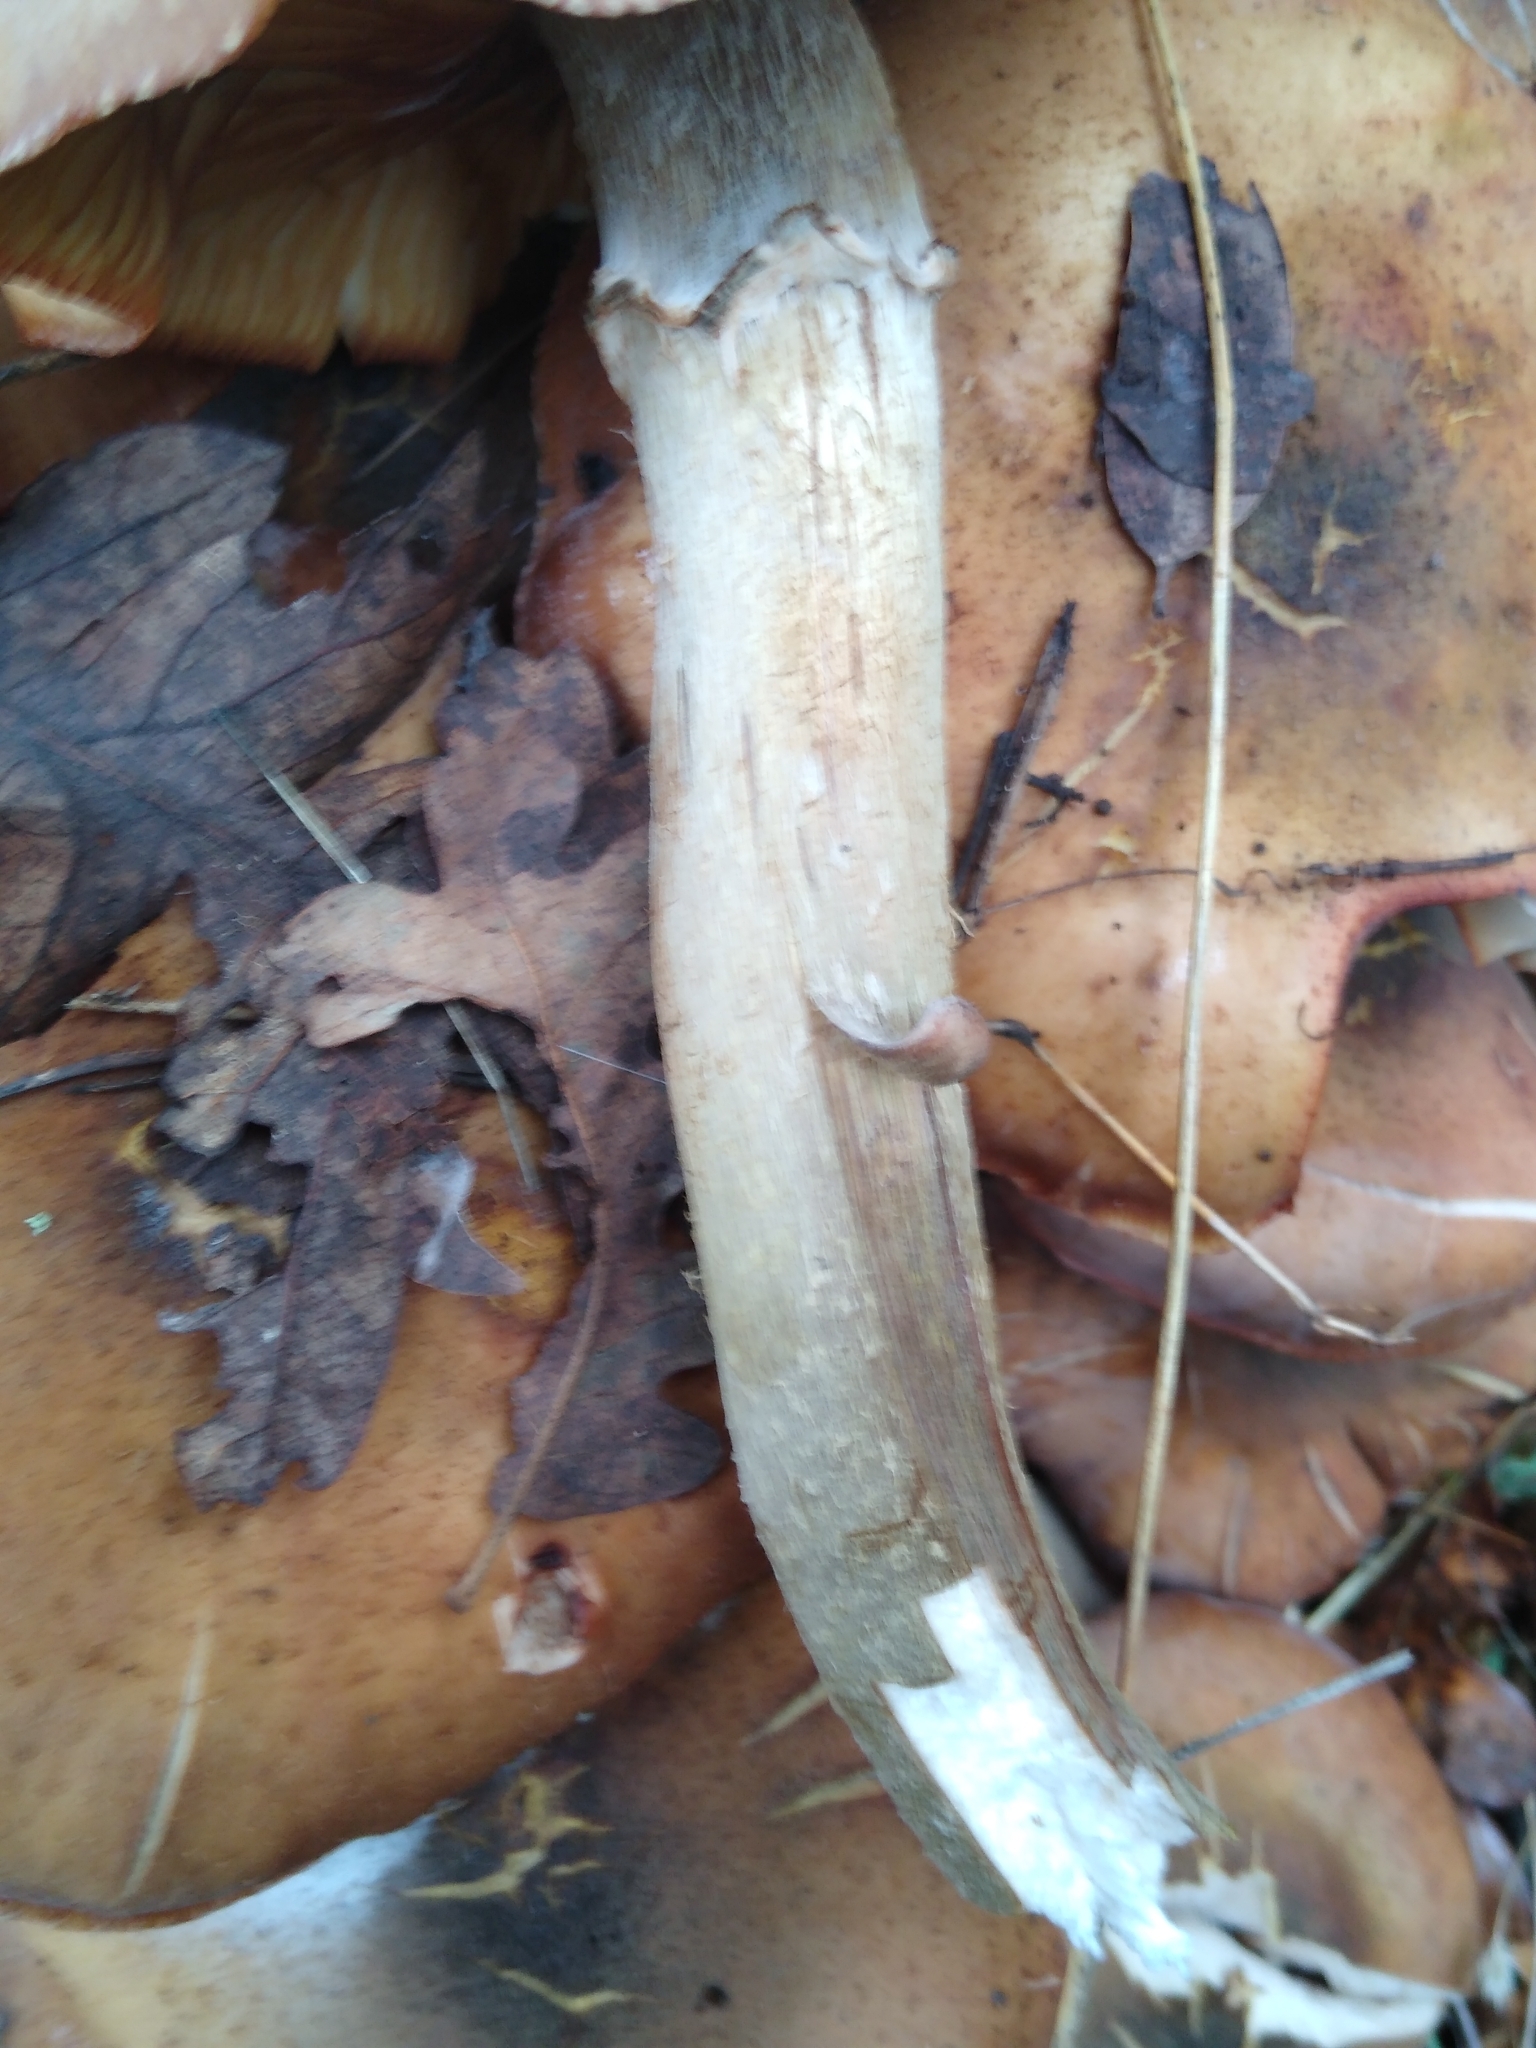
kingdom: Fungi
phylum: Basidiomycota
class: Agaricomycetes
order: Agaricales
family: Physalacriaceae
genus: Armillaria
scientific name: Armillaria mellea
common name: Honey fungus
